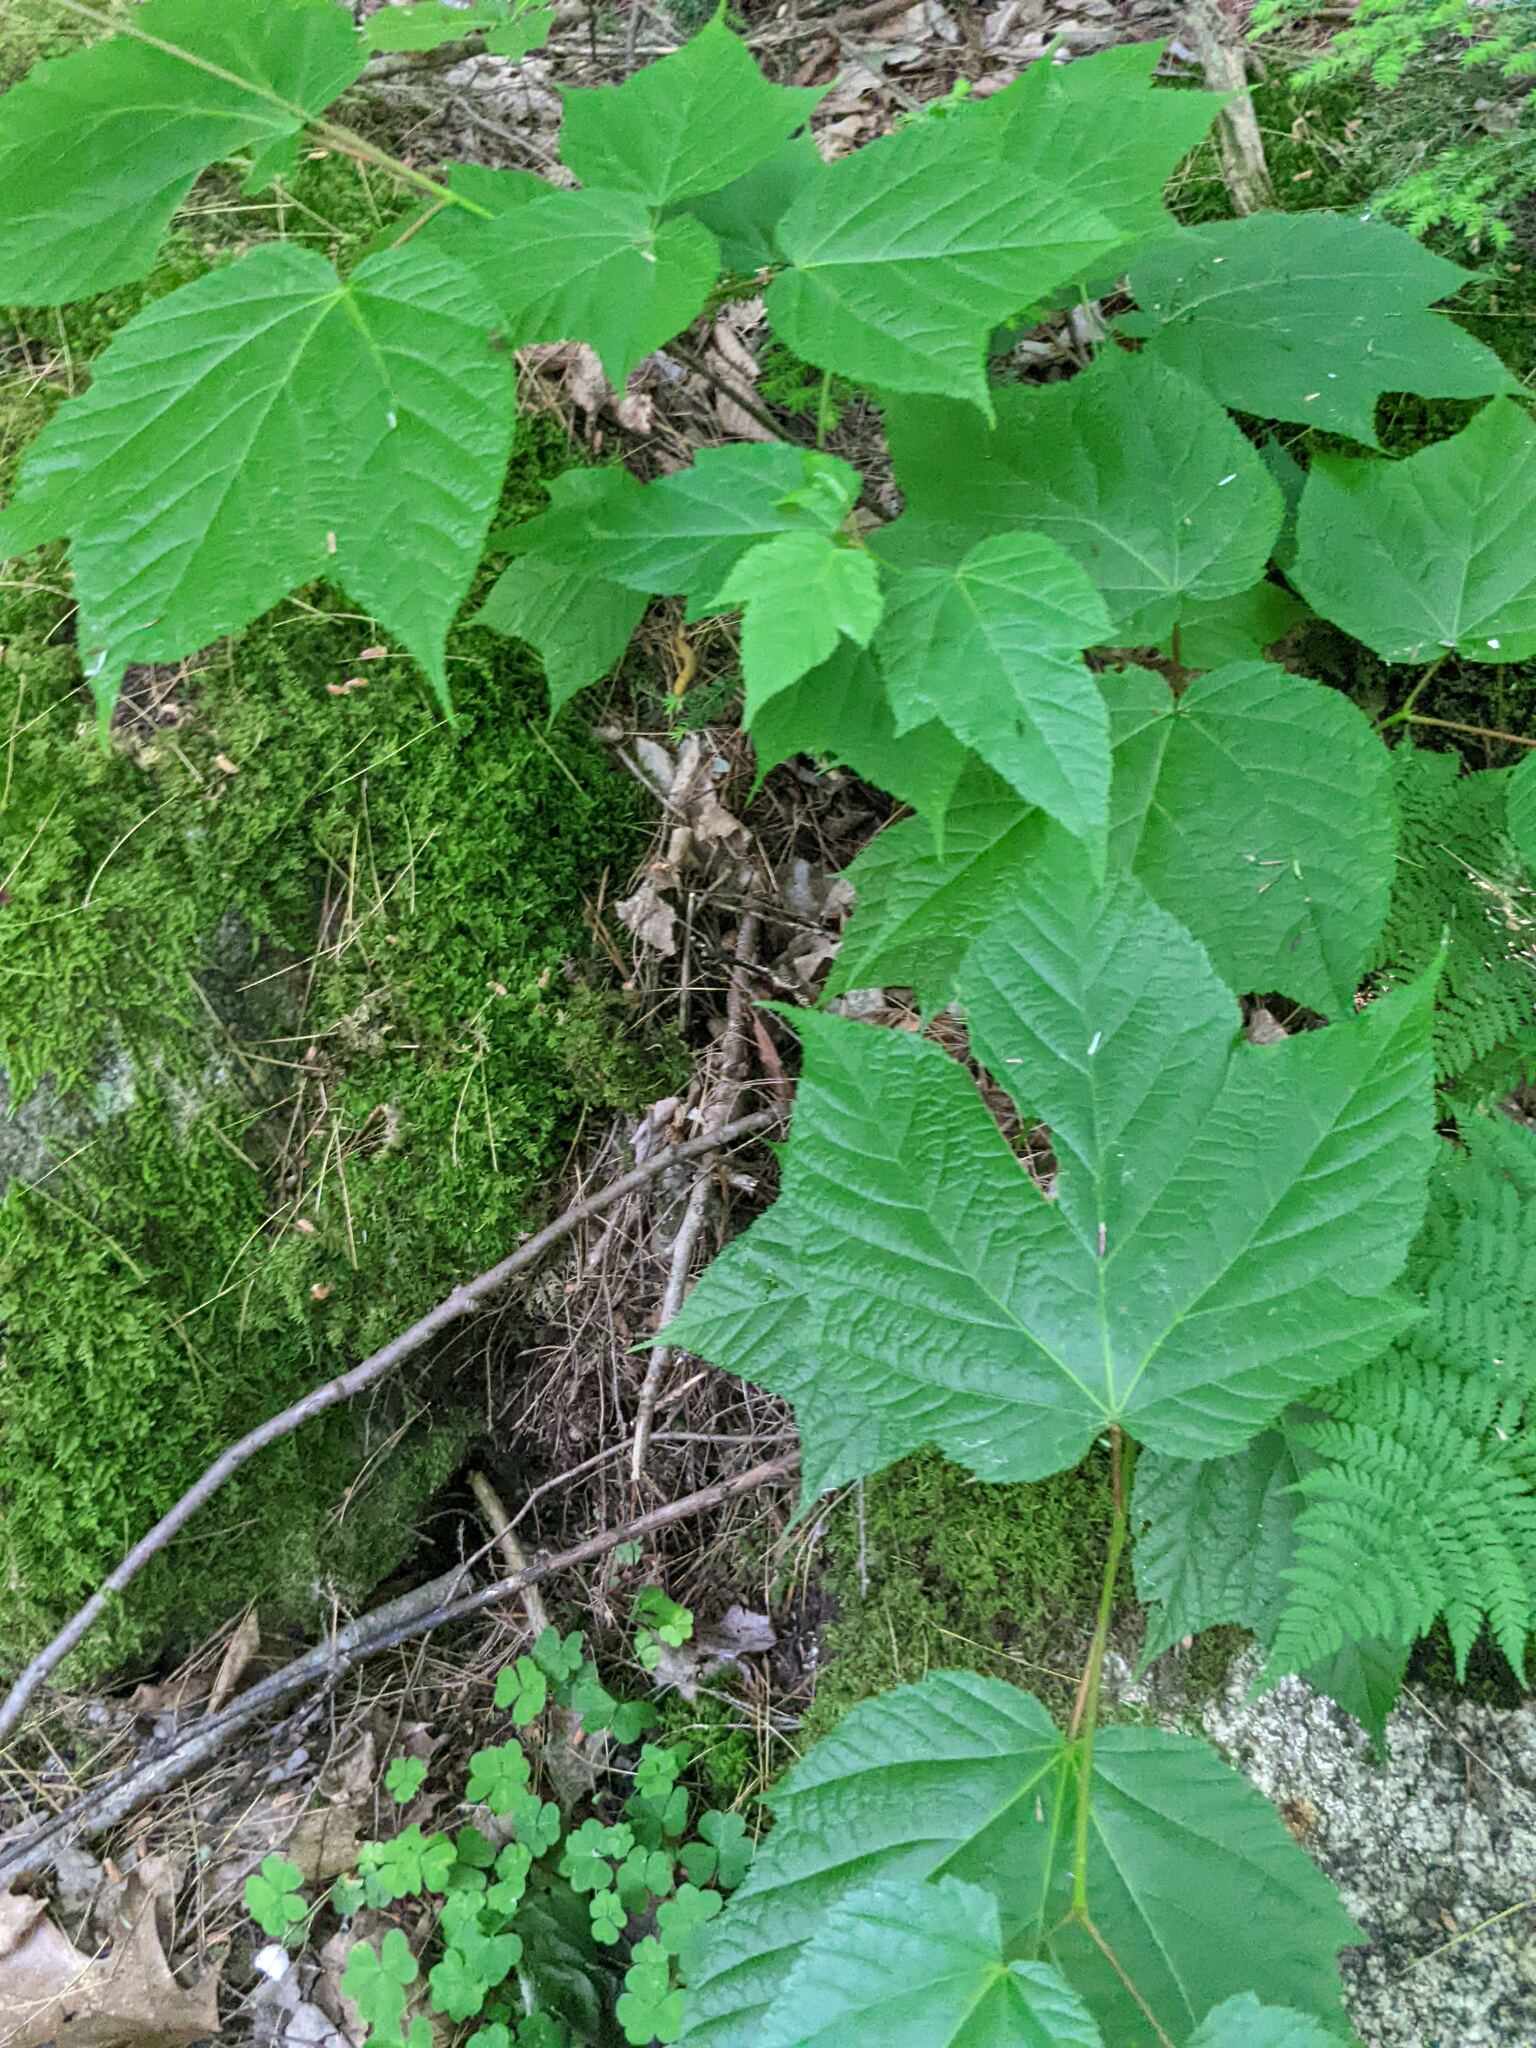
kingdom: Plantae
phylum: Tracheophyta
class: Magnoliopsida
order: Sapindales
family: Sapindaceae
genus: Acer
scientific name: Acer pensylvanicum
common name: Moosewood
